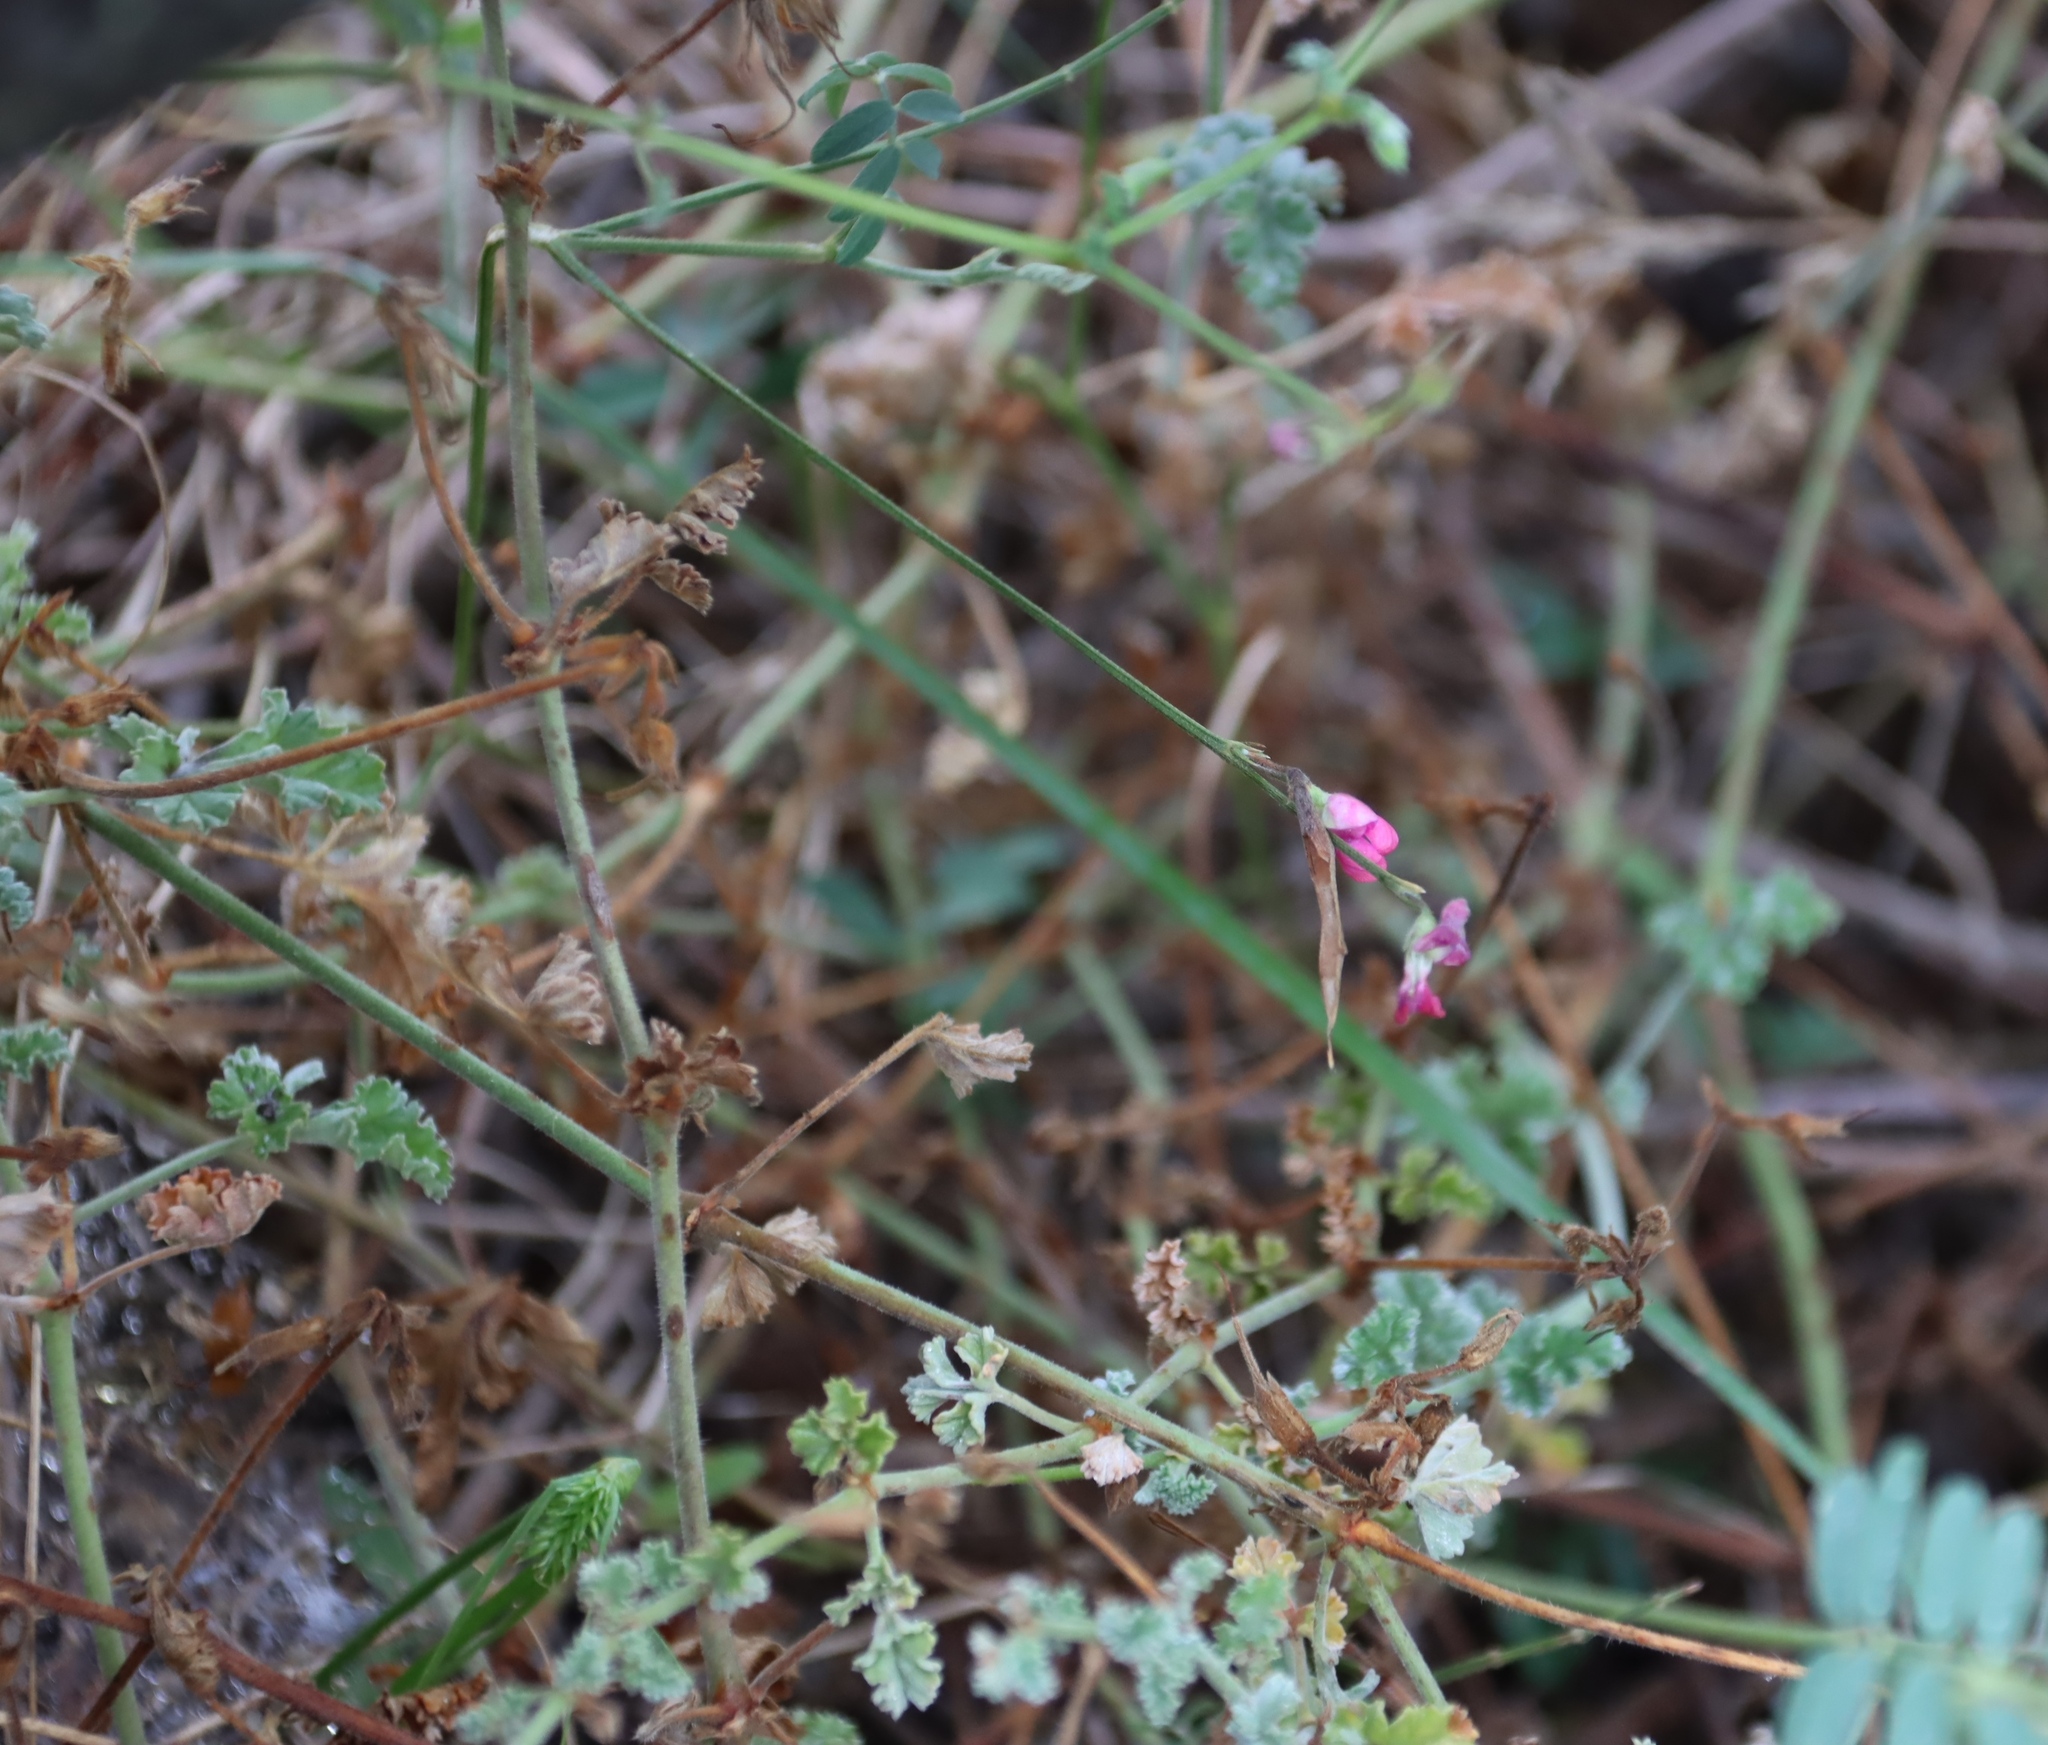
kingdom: Plantae
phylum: Tracheophyta
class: Magnoliopsida
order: Geraniales
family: Geraniaceae
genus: Pelargonium
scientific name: Pelargonium candicans
